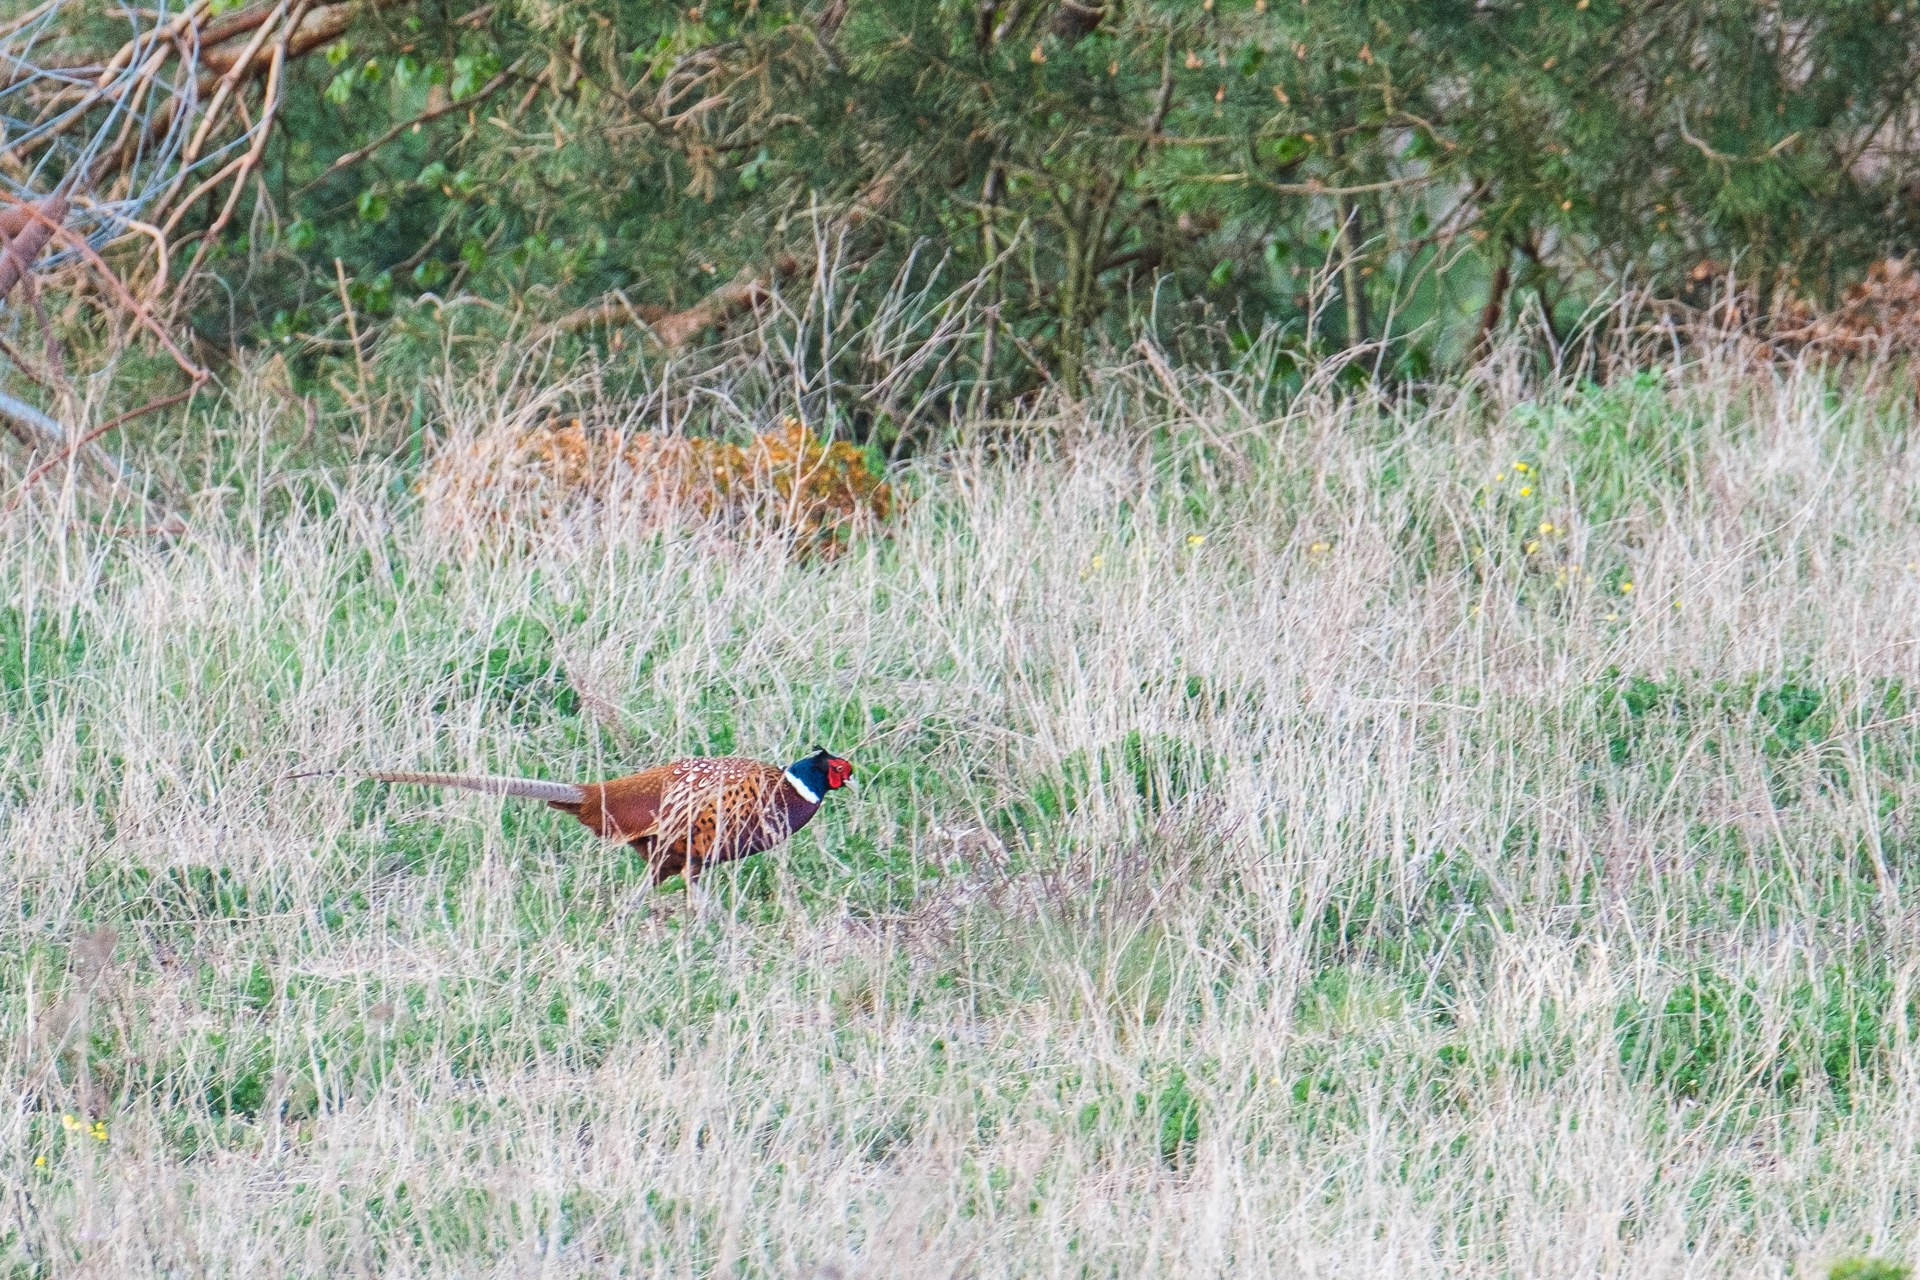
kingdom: Animalia
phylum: Chordata
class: Aves
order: Galliformes
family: Phasianidae
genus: Phasianus
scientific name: Phasianus colchicus
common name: Common pheasant
